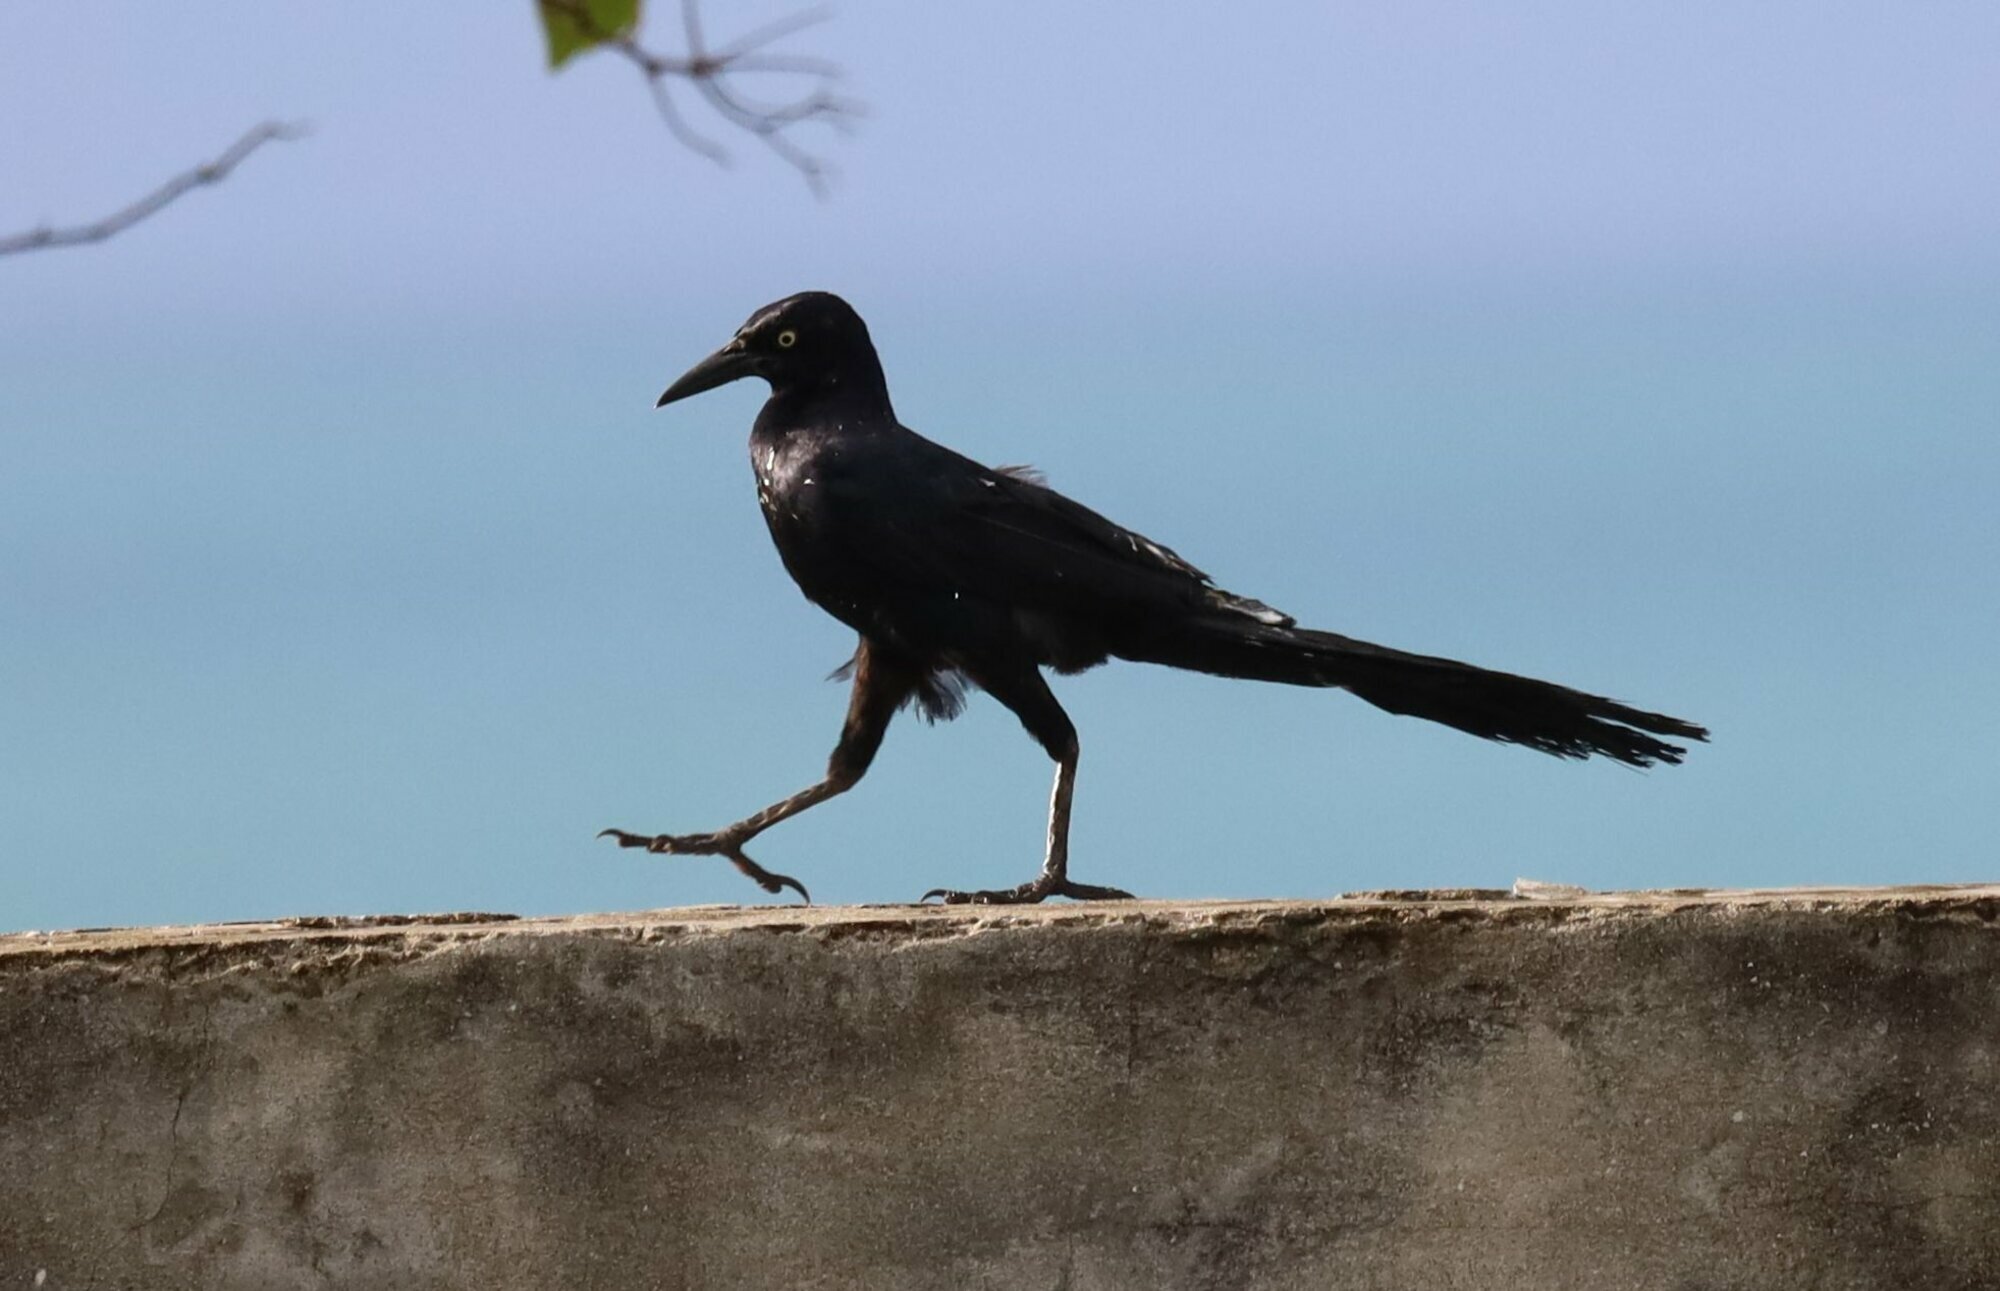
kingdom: Animalia
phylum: Chordata
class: Aves
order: Passeriformes
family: Icteridae
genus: Quiscalus
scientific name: Quiscalus mexicanus
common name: Great-tailed grackle
